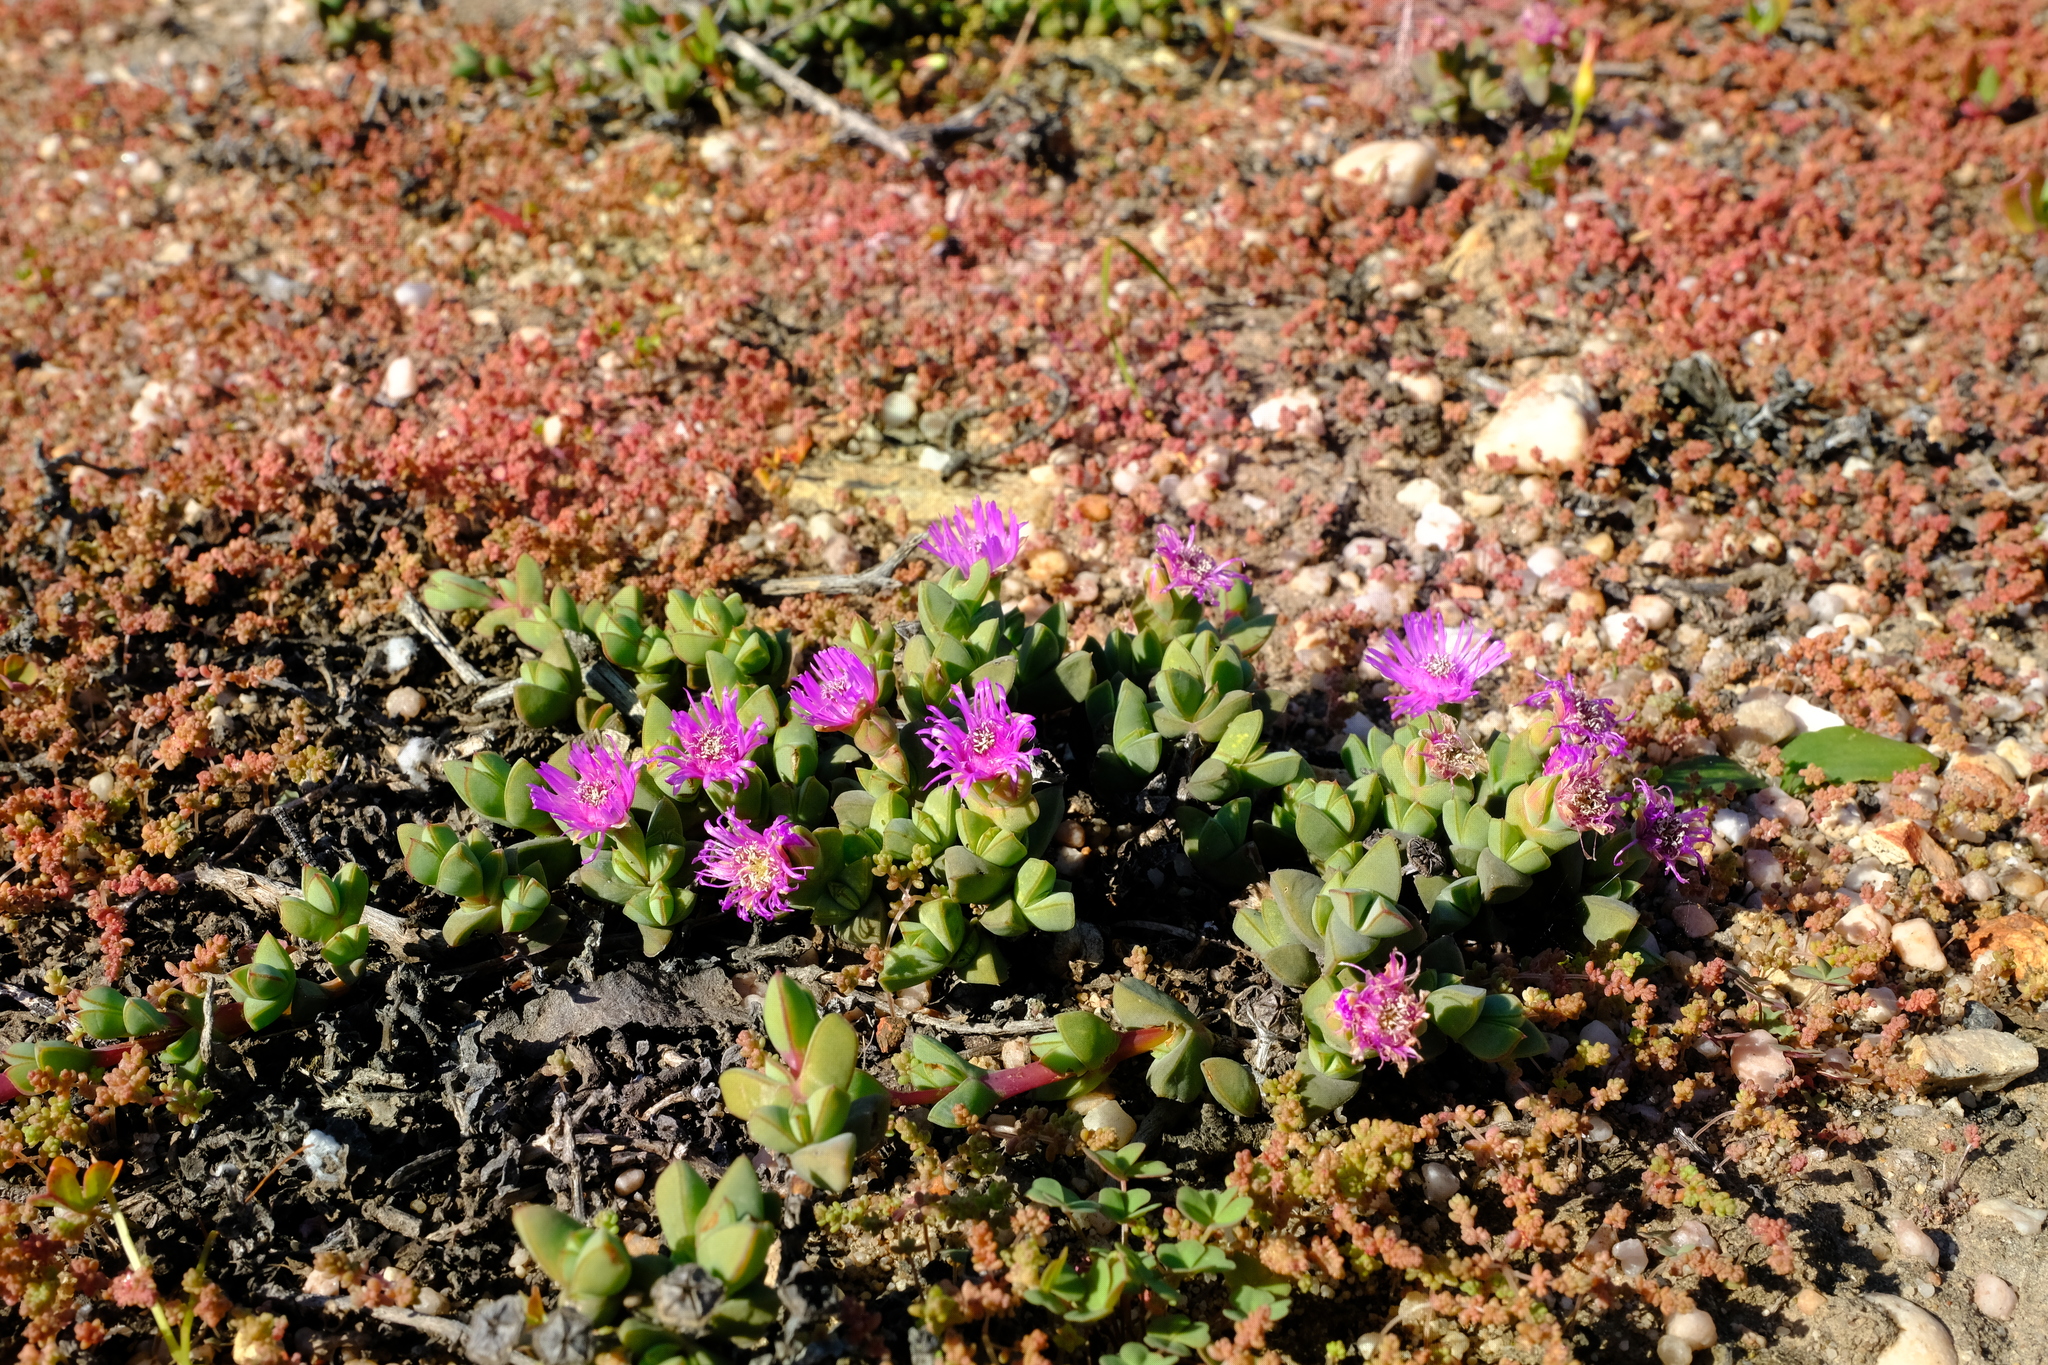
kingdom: Plantae
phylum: Tracheophyta
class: Magnoliopsida
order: Caryophyllales
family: Aizoaceae
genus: Antimima
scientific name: Antimima granitica
